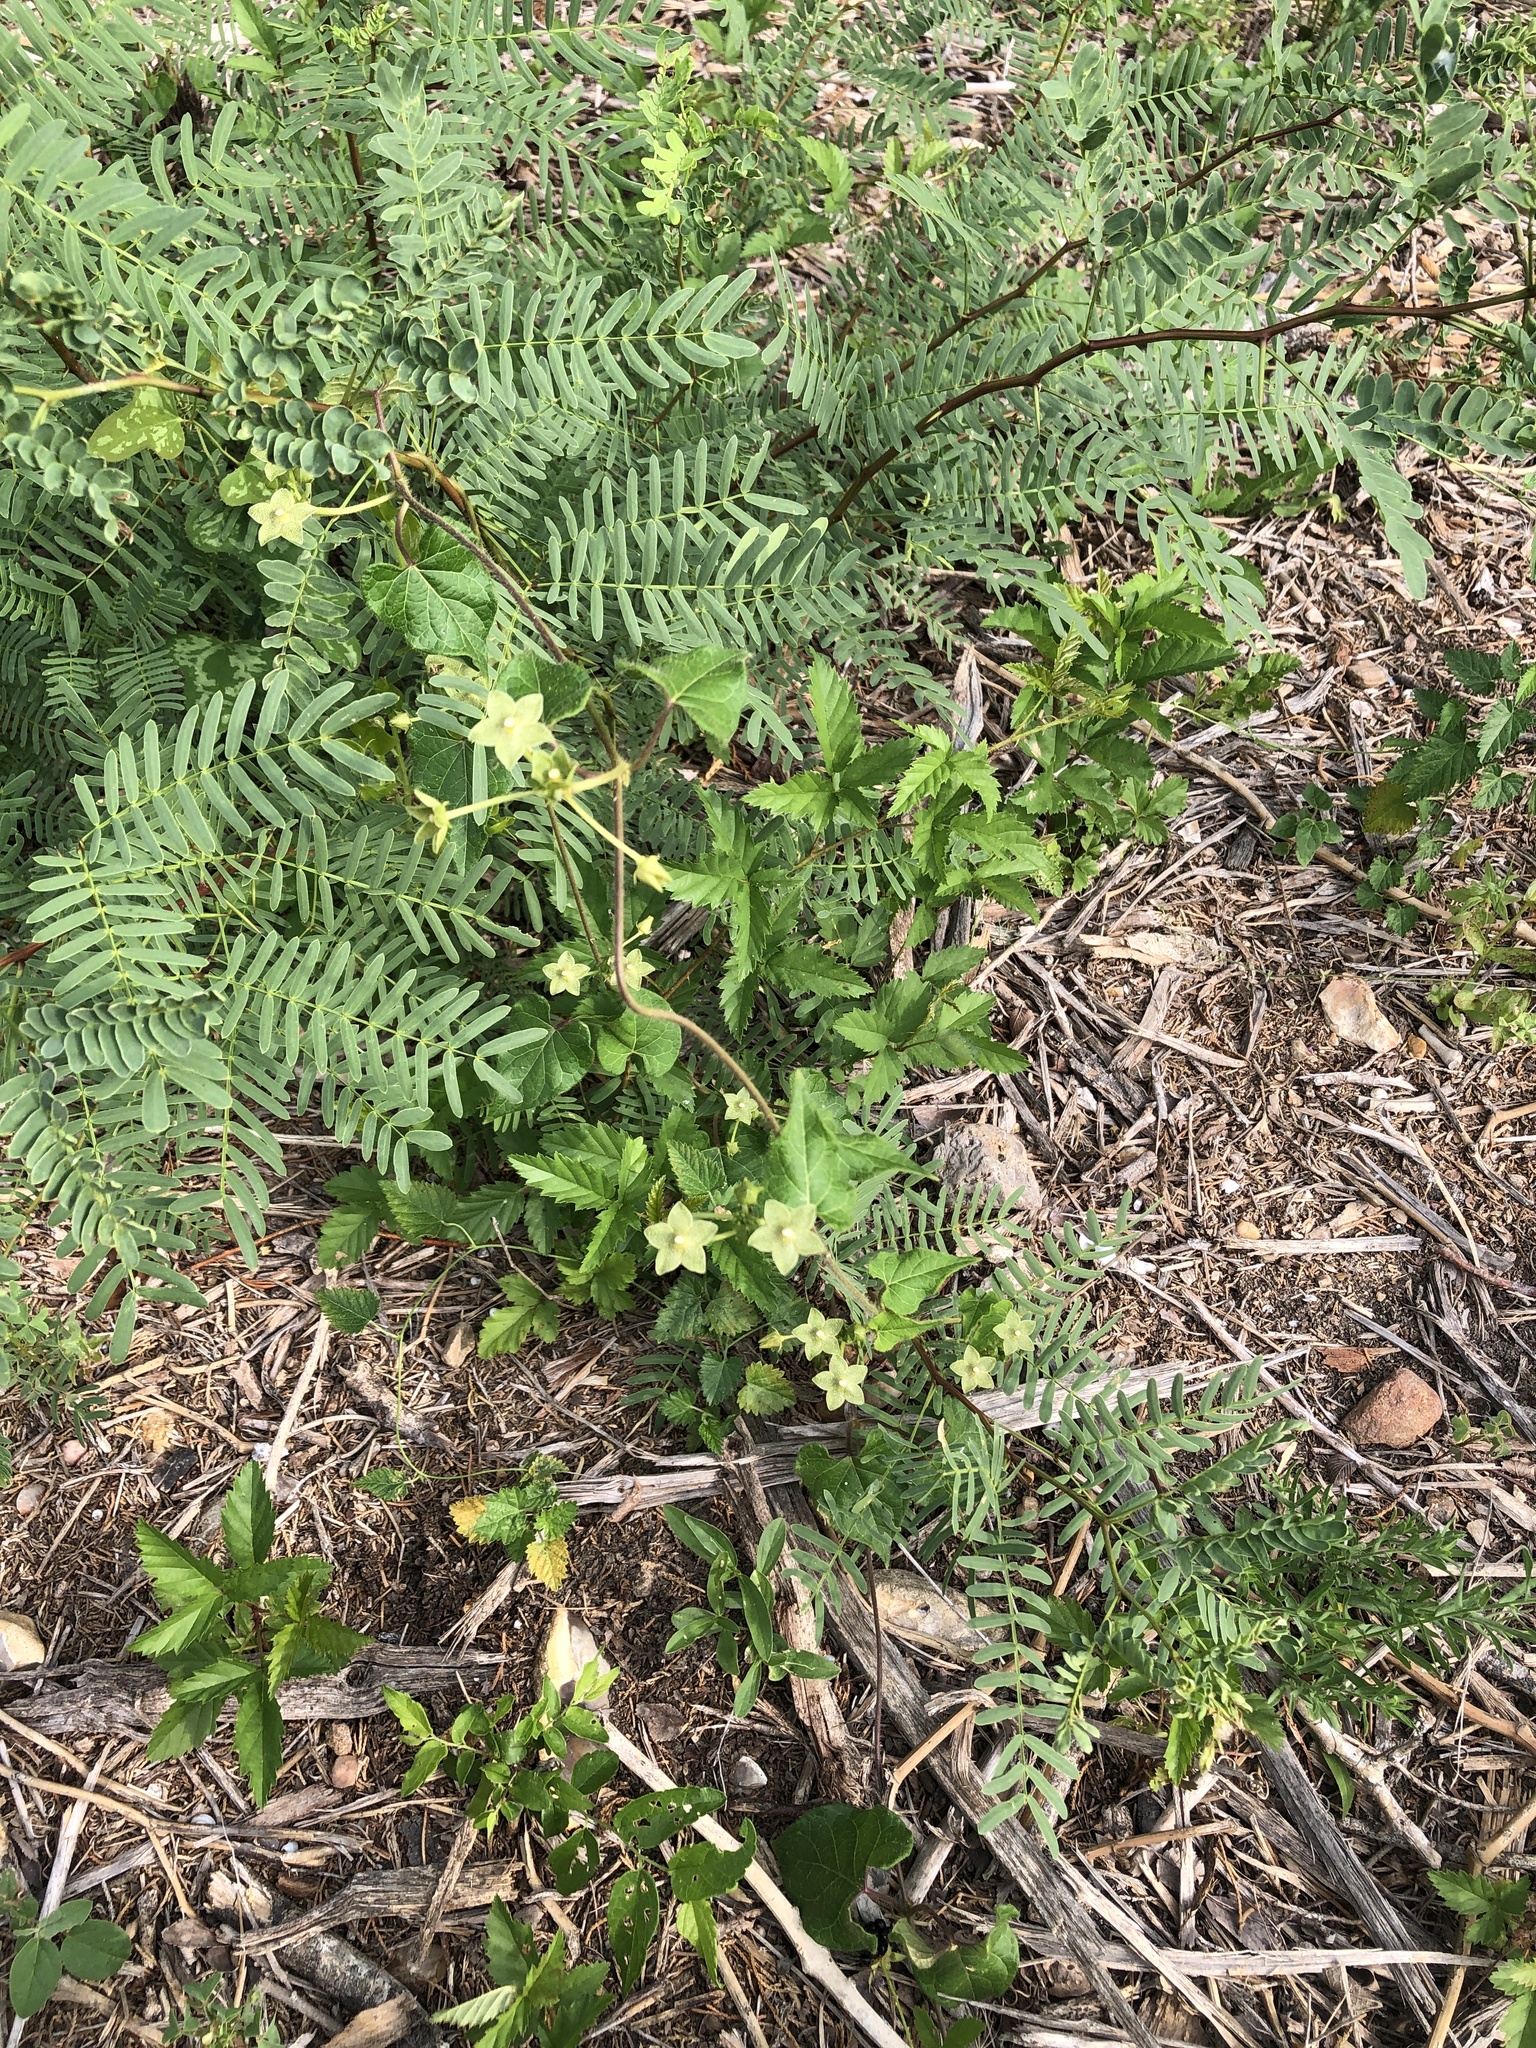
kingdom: Plantae
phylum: Tracheophyta
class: Magnoliopsida
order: Gentianales
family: Apocynaceae
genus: Dictyanthus
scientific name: Dictyanthus reticulatus
